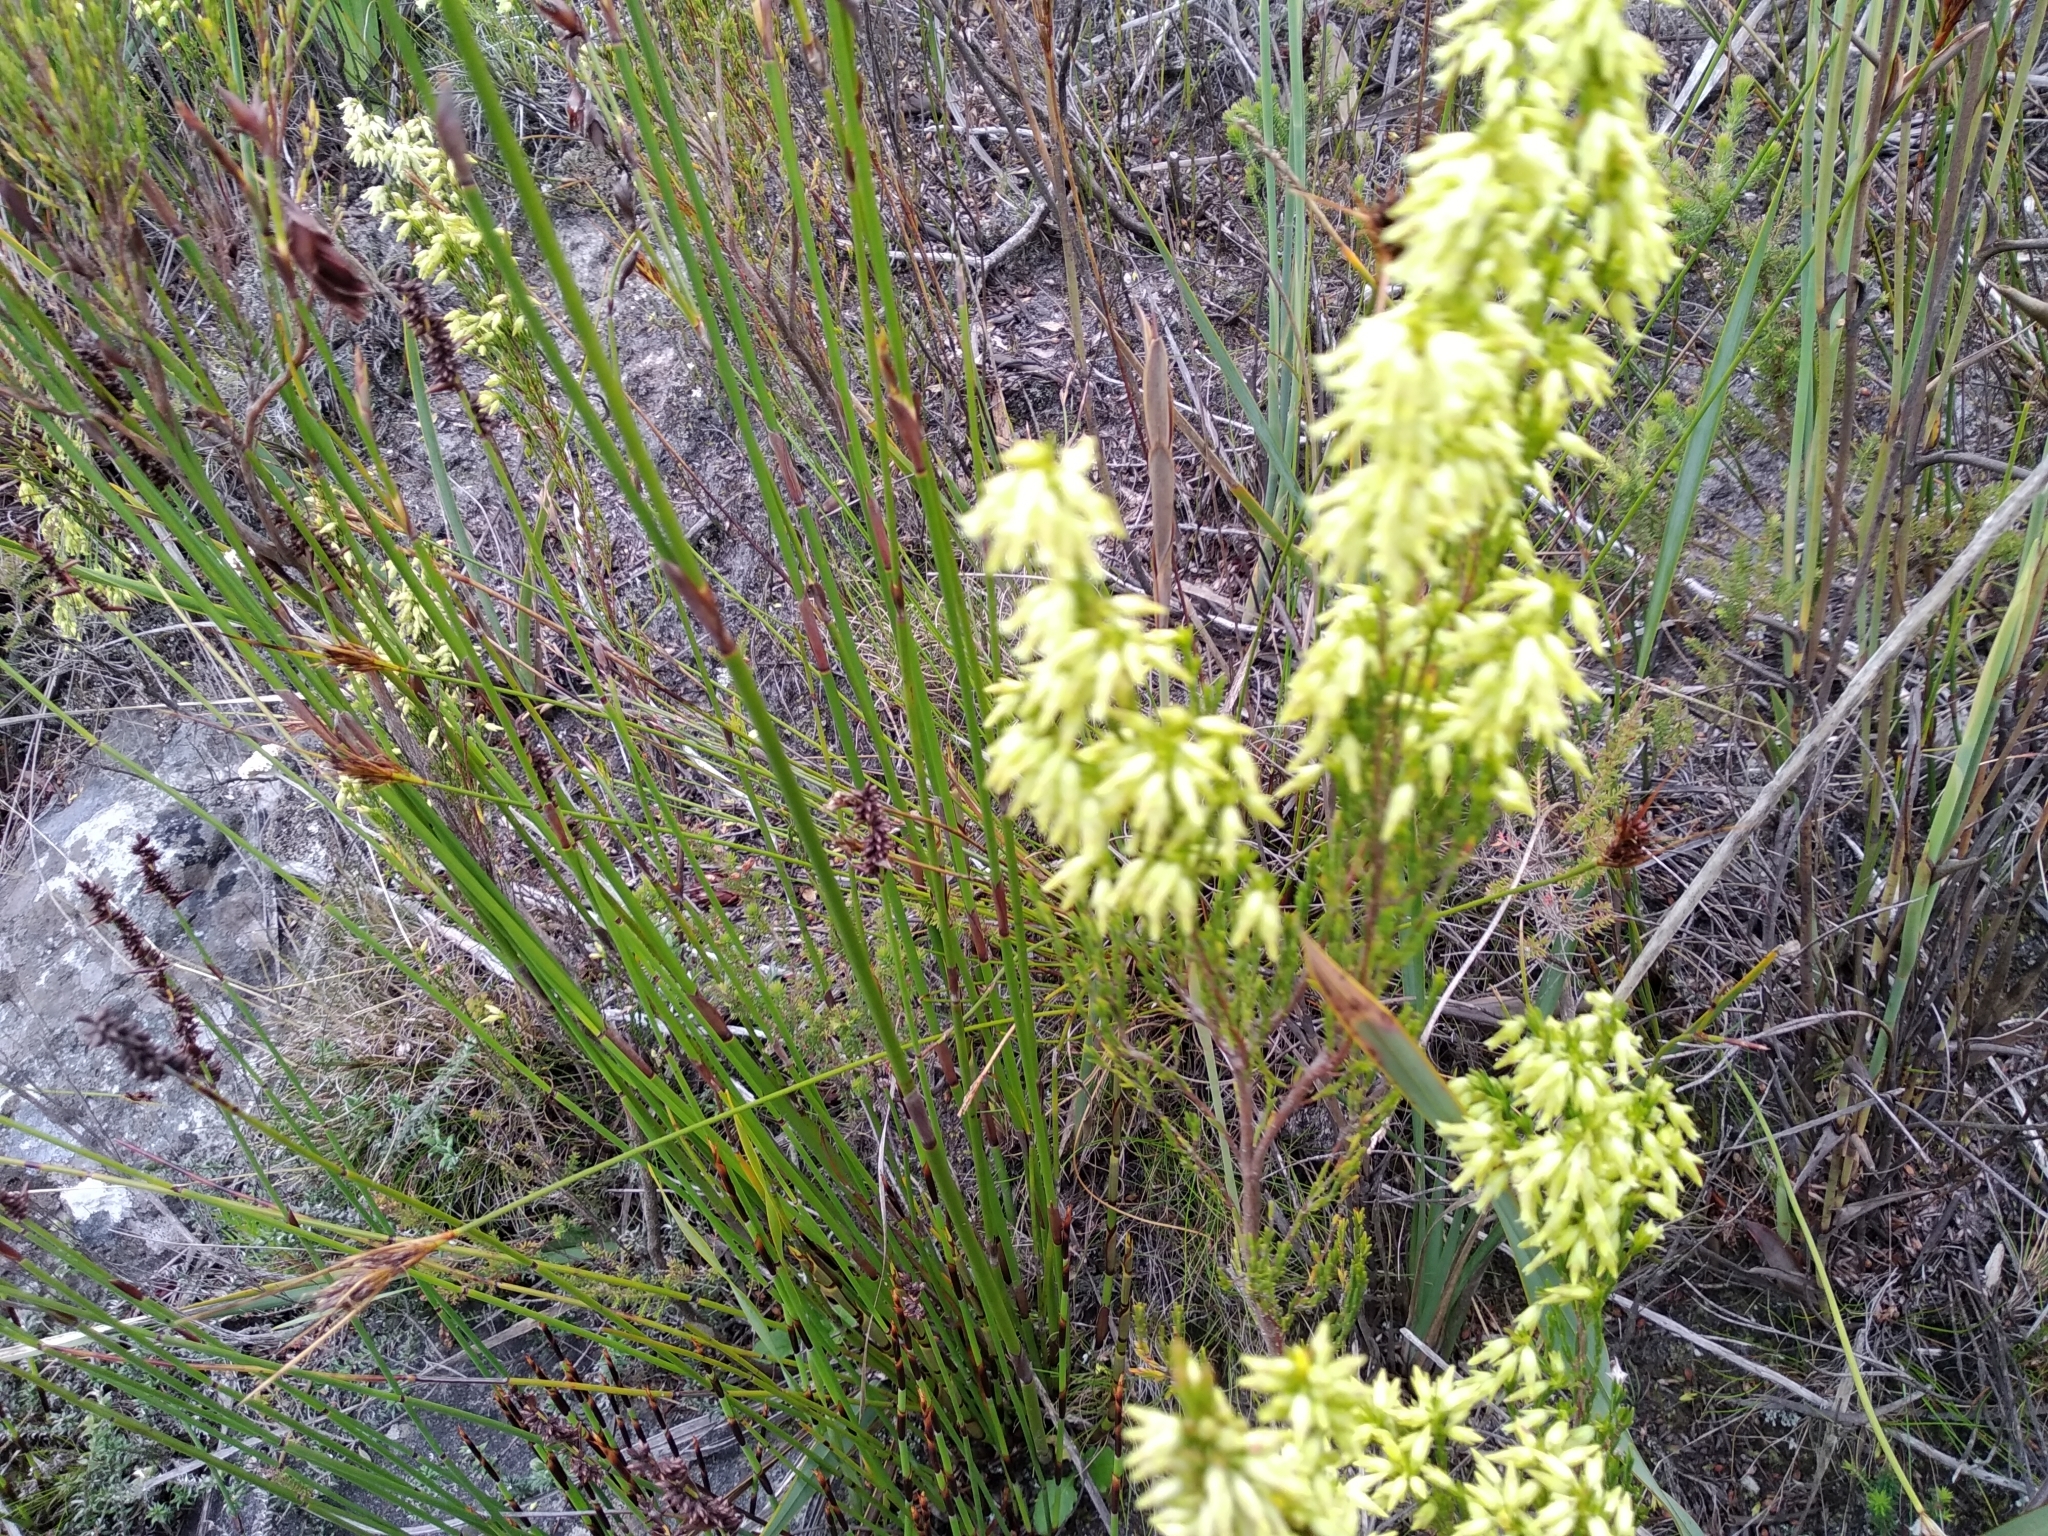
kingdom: Plantae
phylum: Tracheophyta
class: Magnoliopsida
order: Ericales
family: Ericaceae
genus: Erica
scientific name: Erica lutea
